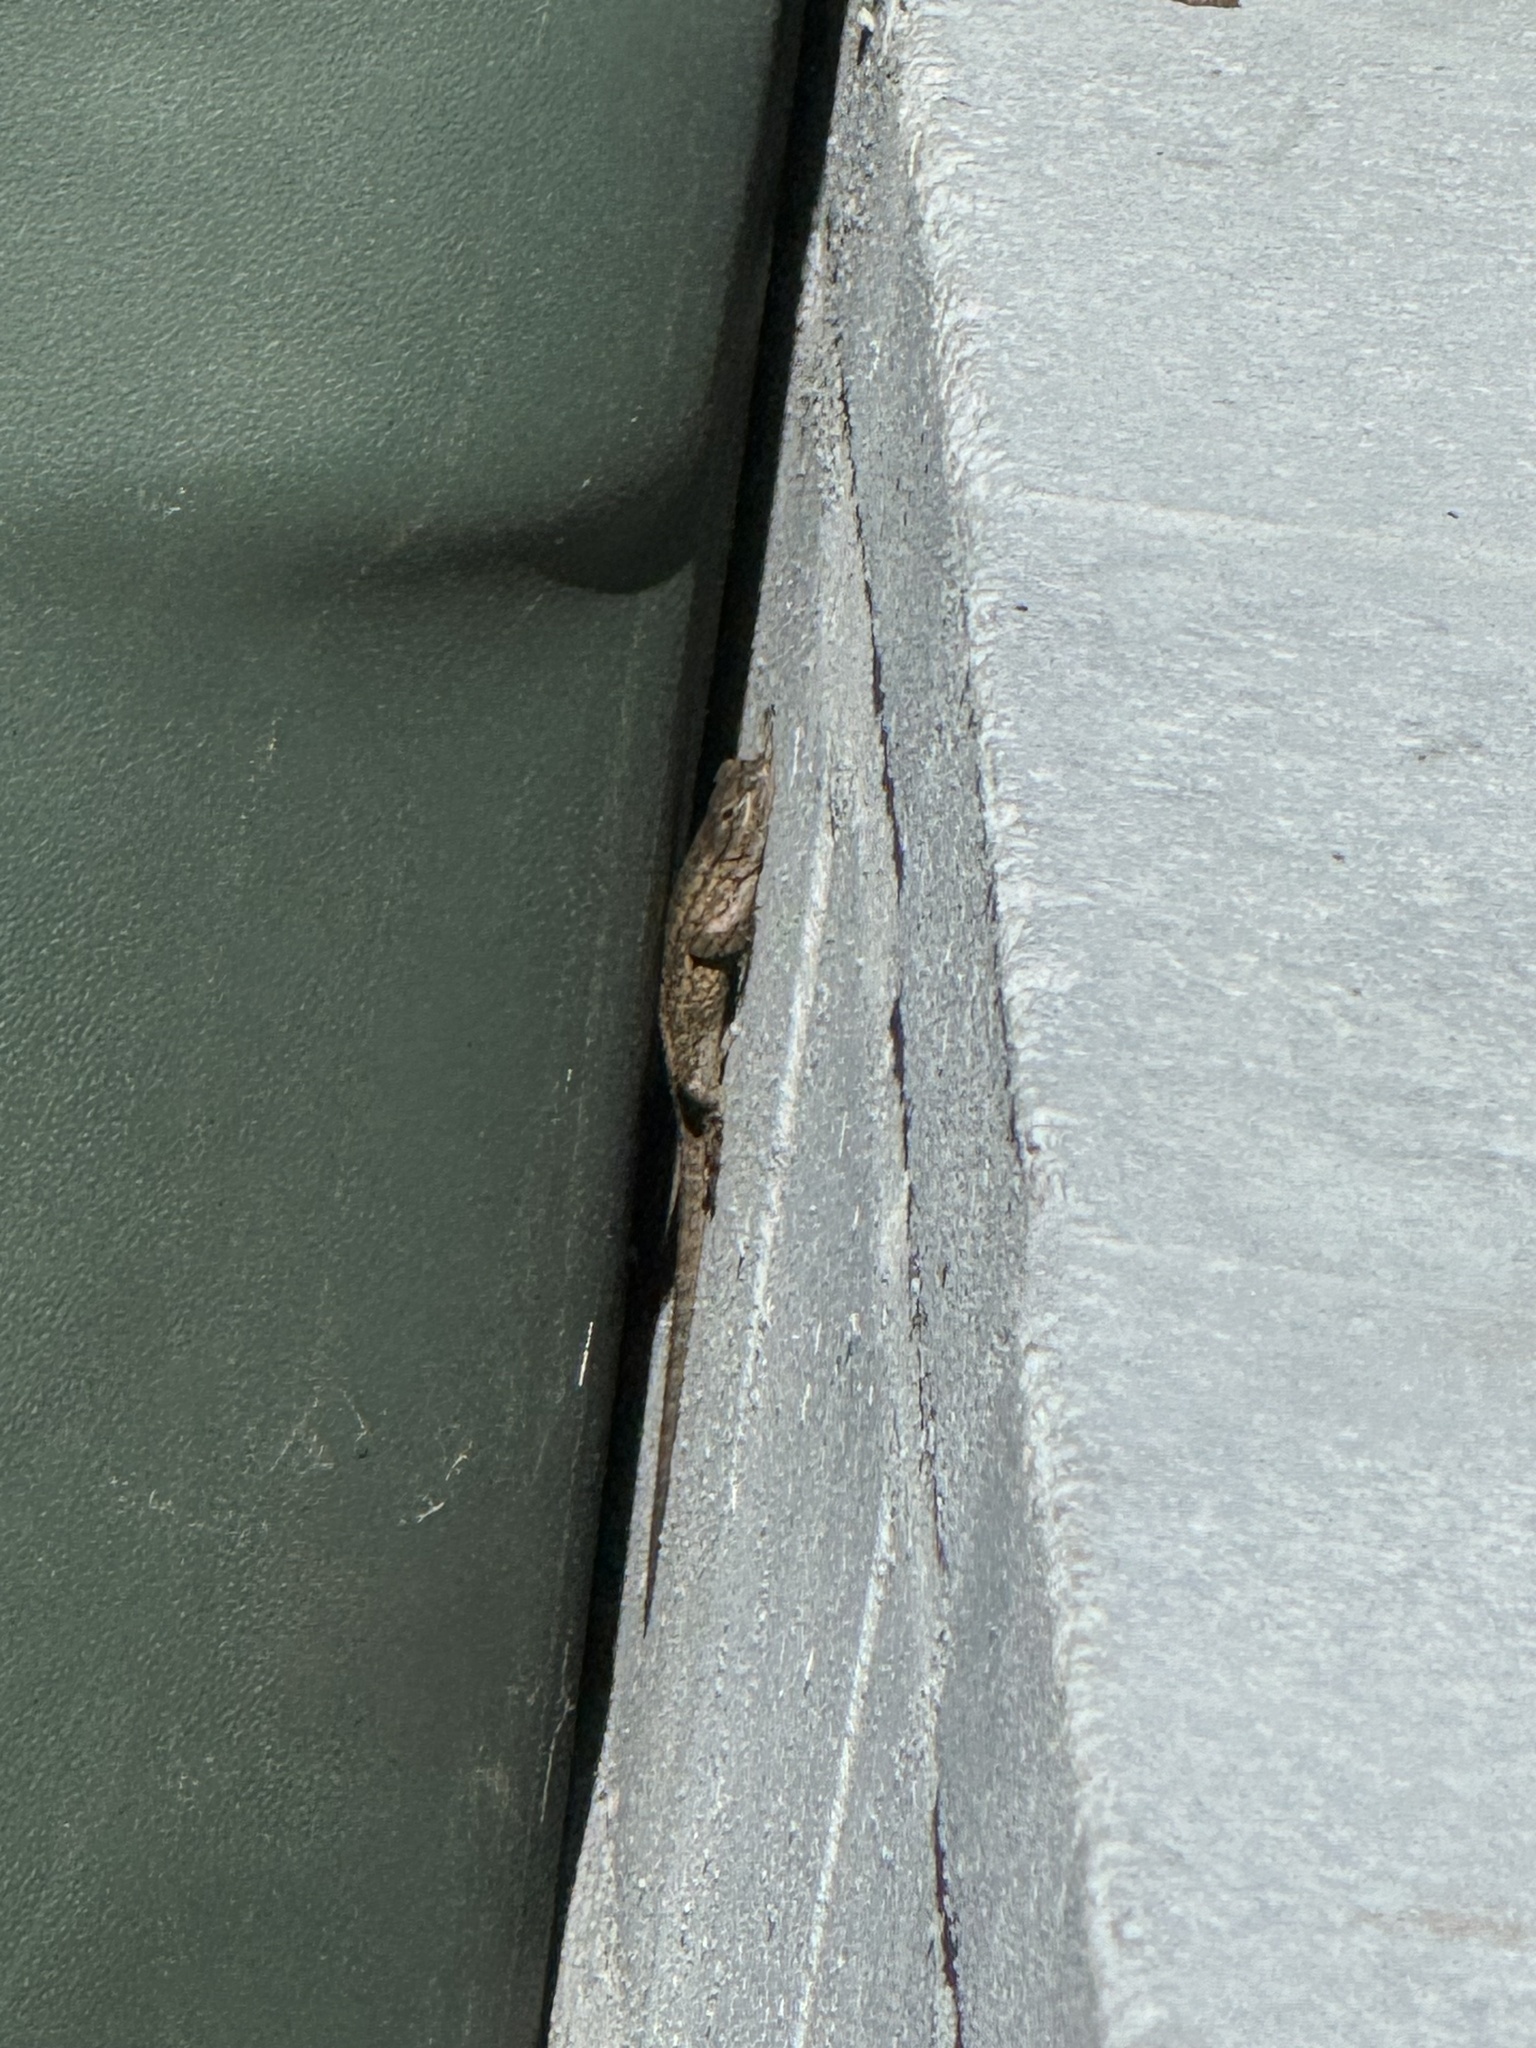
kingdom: Animalia
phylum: Chordata
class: Squamata
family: Phrynosomatidae
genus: Sceloporus
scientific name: Sceloporus occidentalis
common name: Western fence lizard
